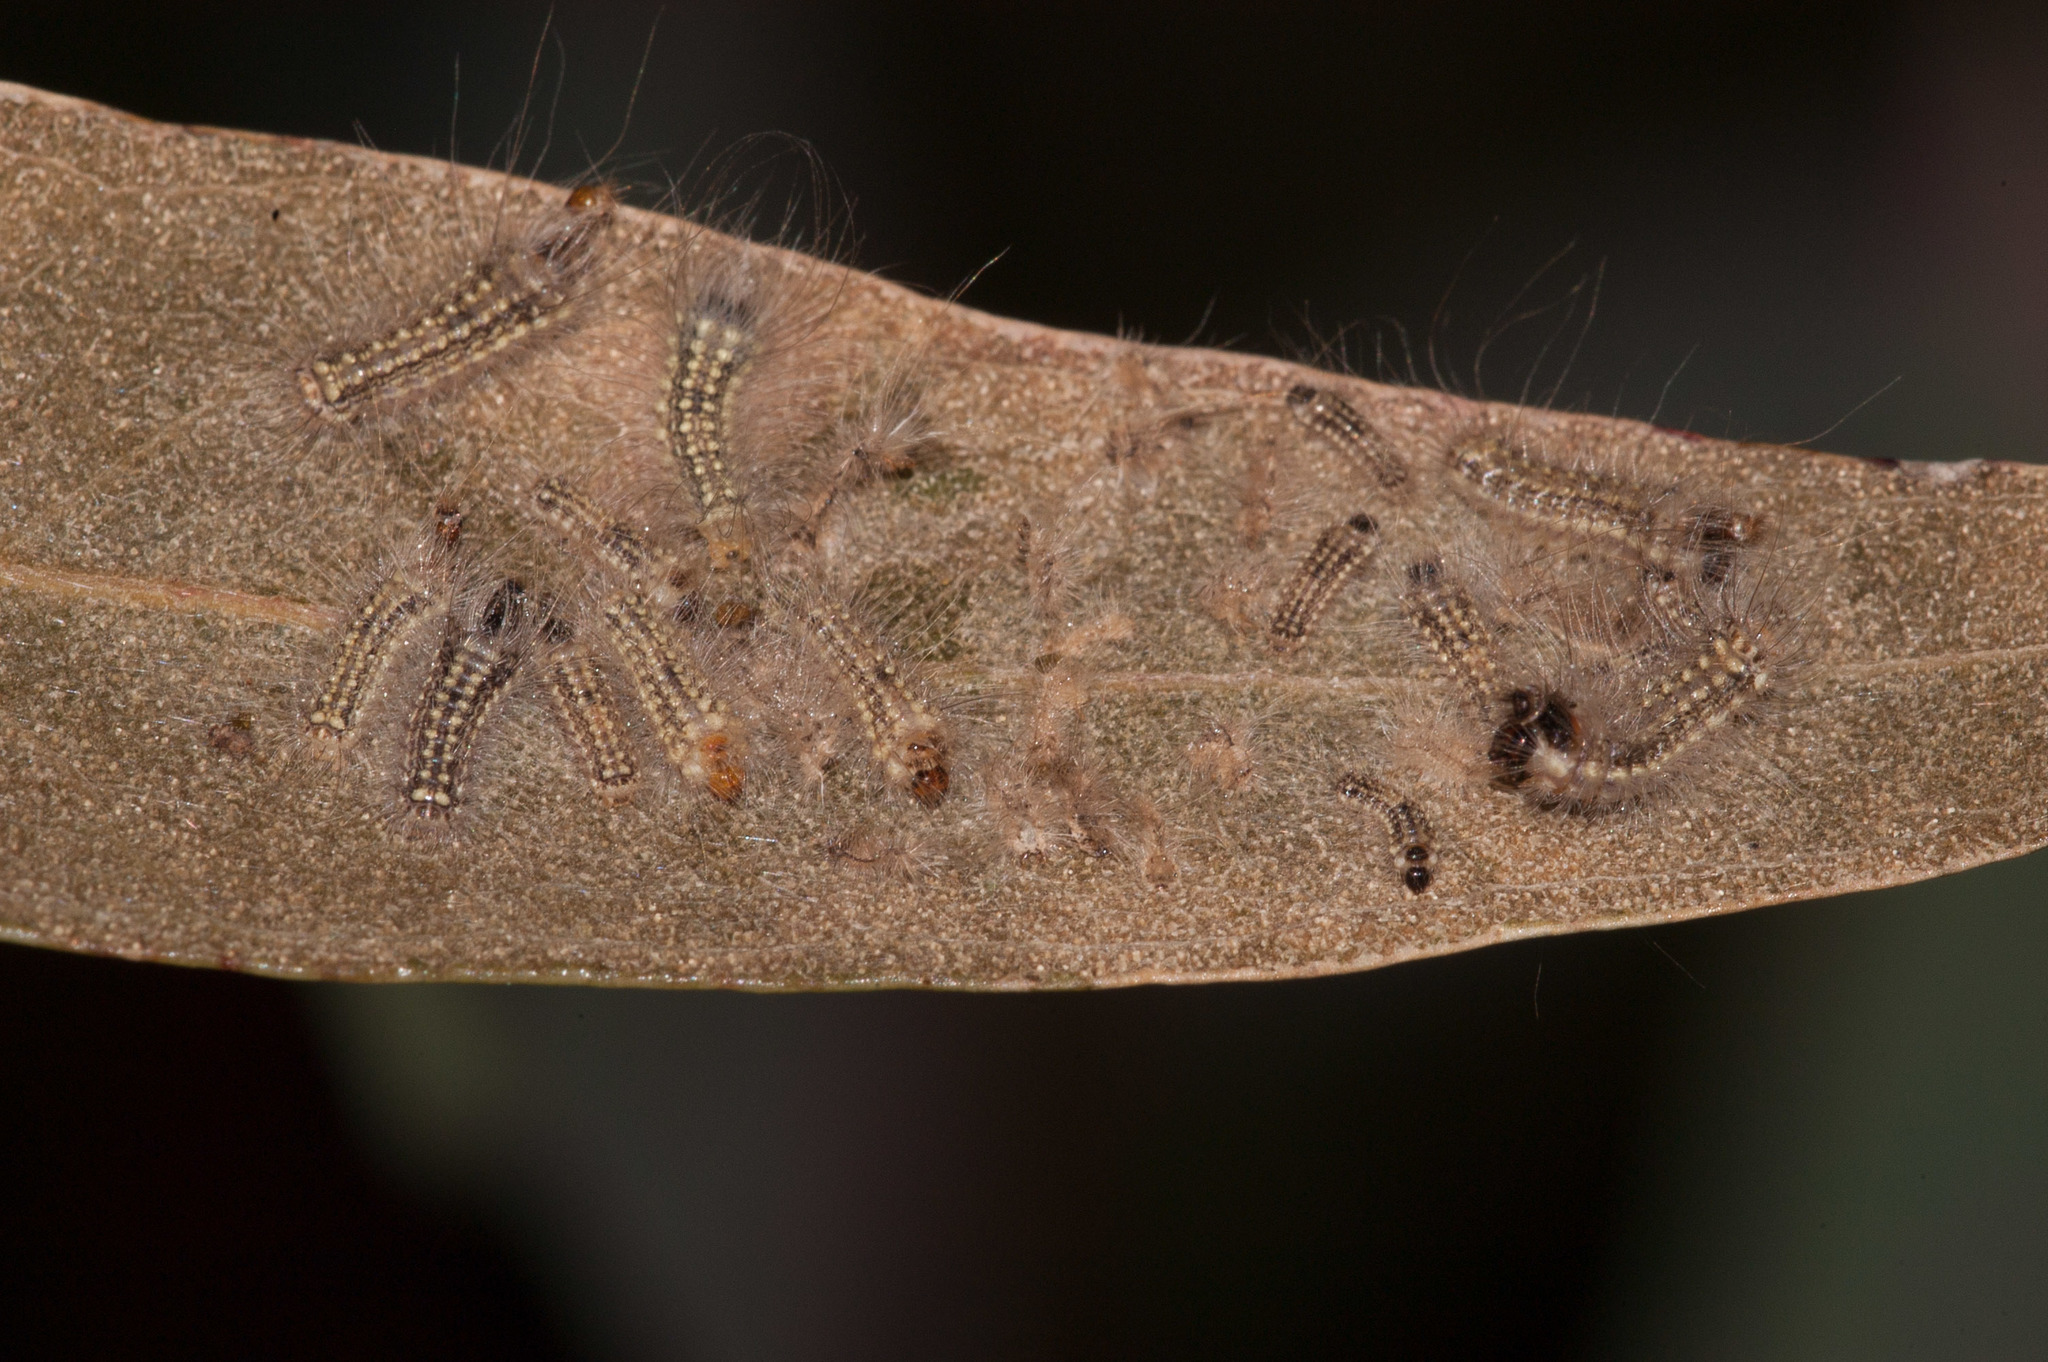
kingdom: Animalia
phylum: Arthropoda
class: Insecta
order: Lepidoptera
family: Nolidae
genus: Uraba
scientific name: Uraba lugens
